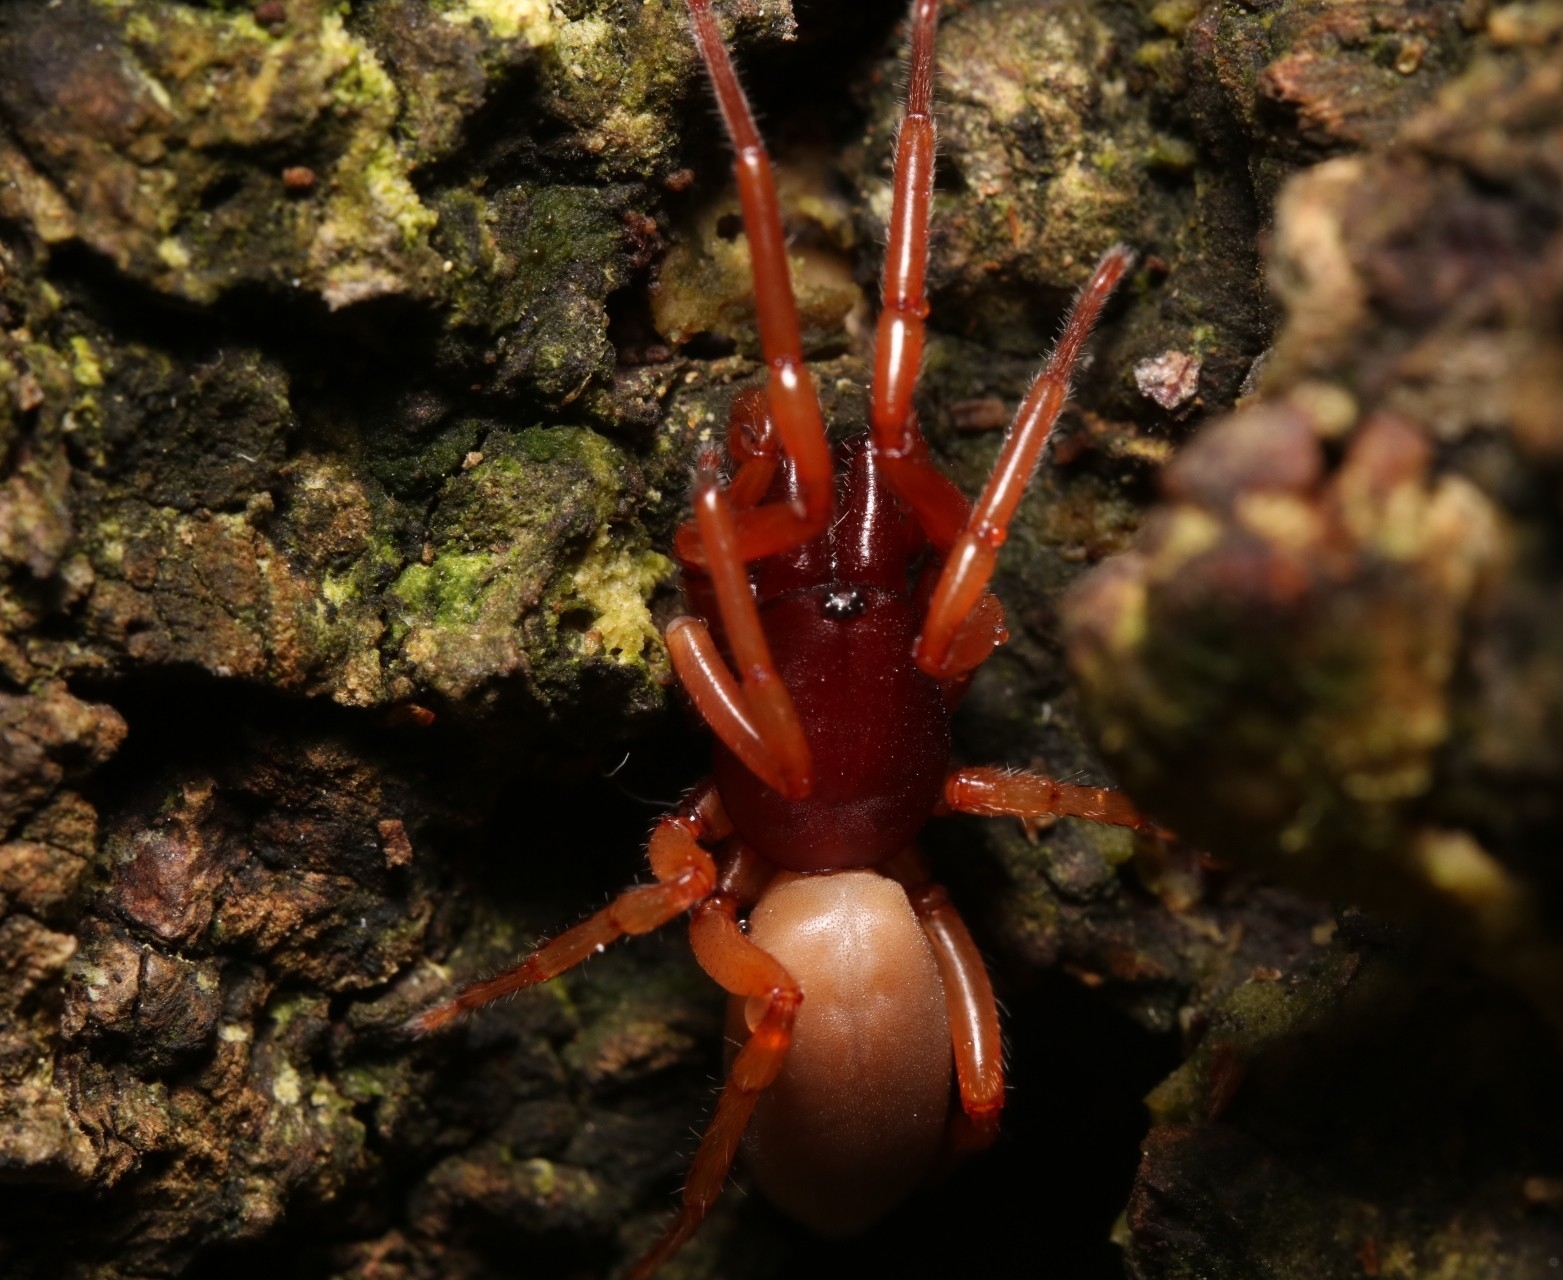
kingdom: Animalia
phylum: Arthropoda
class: Arachnida
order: Araneae
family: Dysderidae
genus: Dysdera
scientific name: Dysdera crocata
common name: Woodlouse spider
